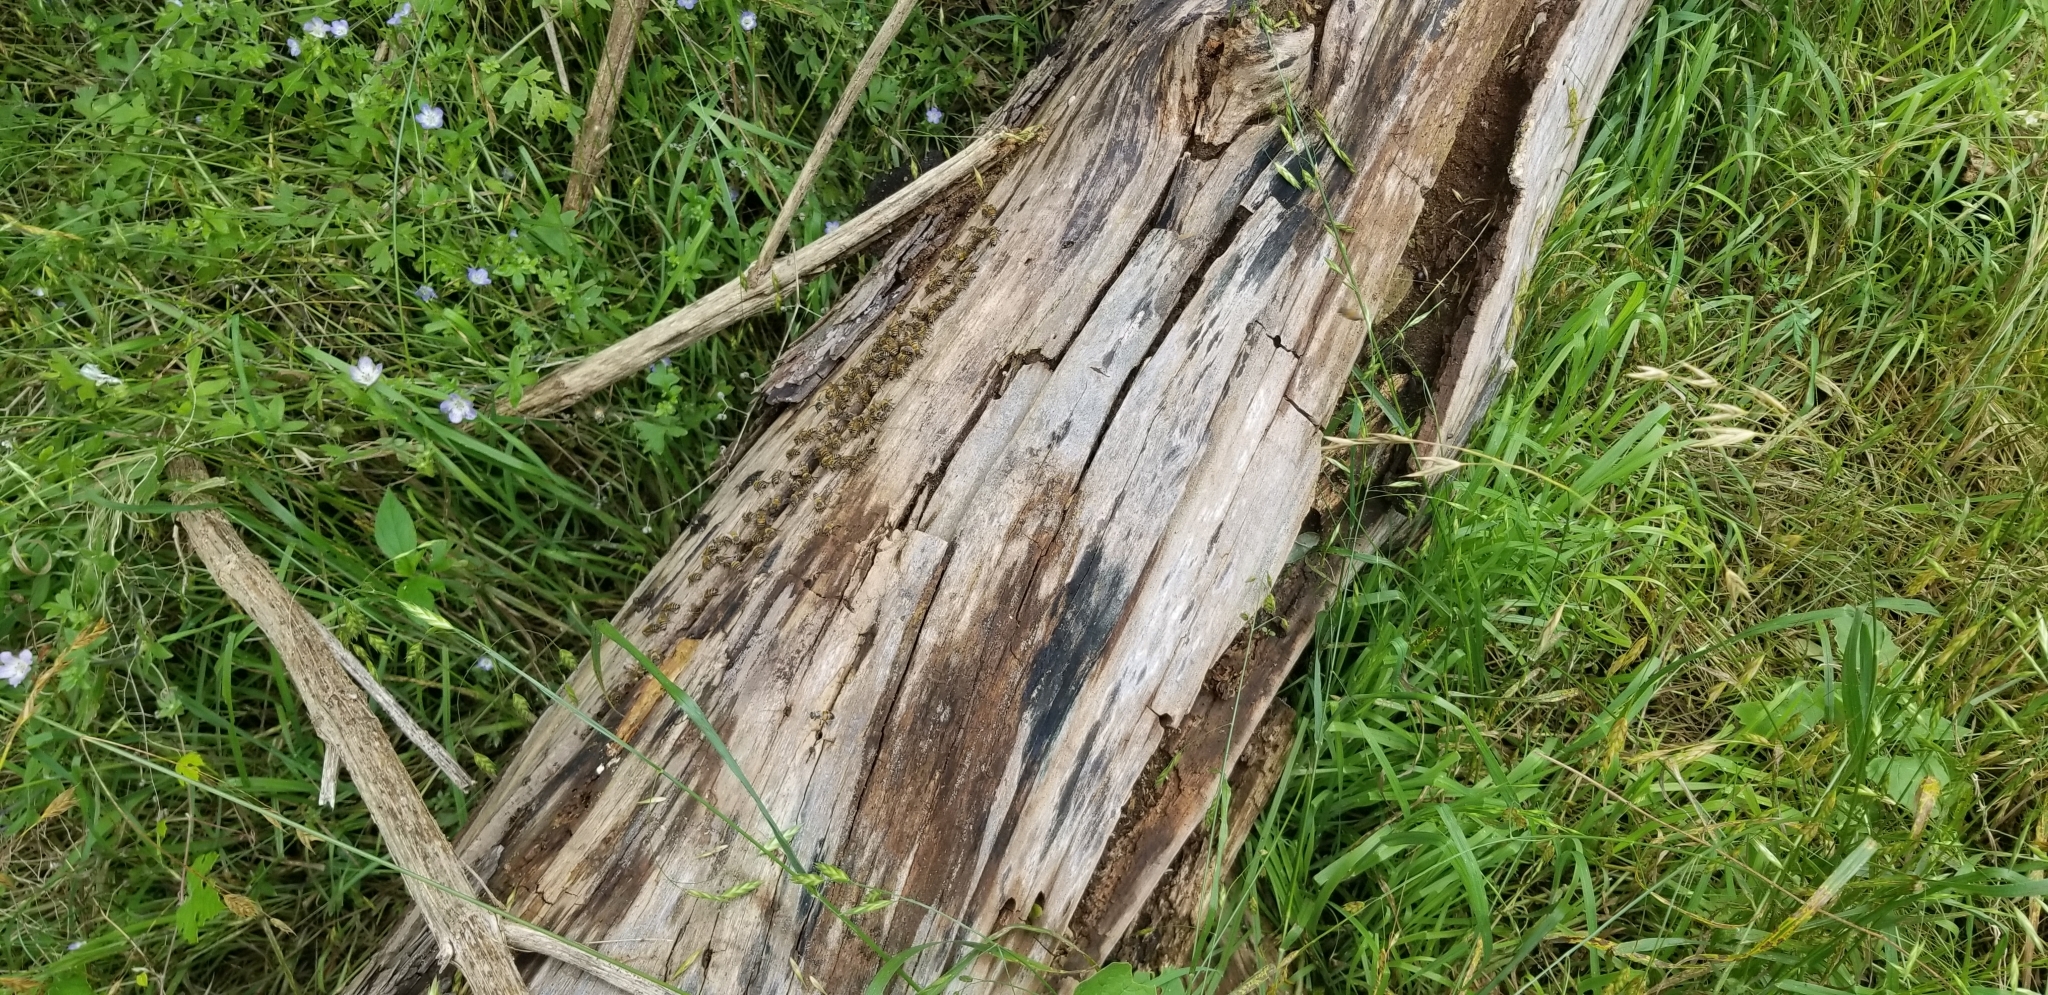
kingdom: Animalia
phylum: Arthropoda
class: Insecta
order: Hymenoptera
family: Apidae
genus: Apis
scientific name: Apis mellifera
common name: Honey bee
